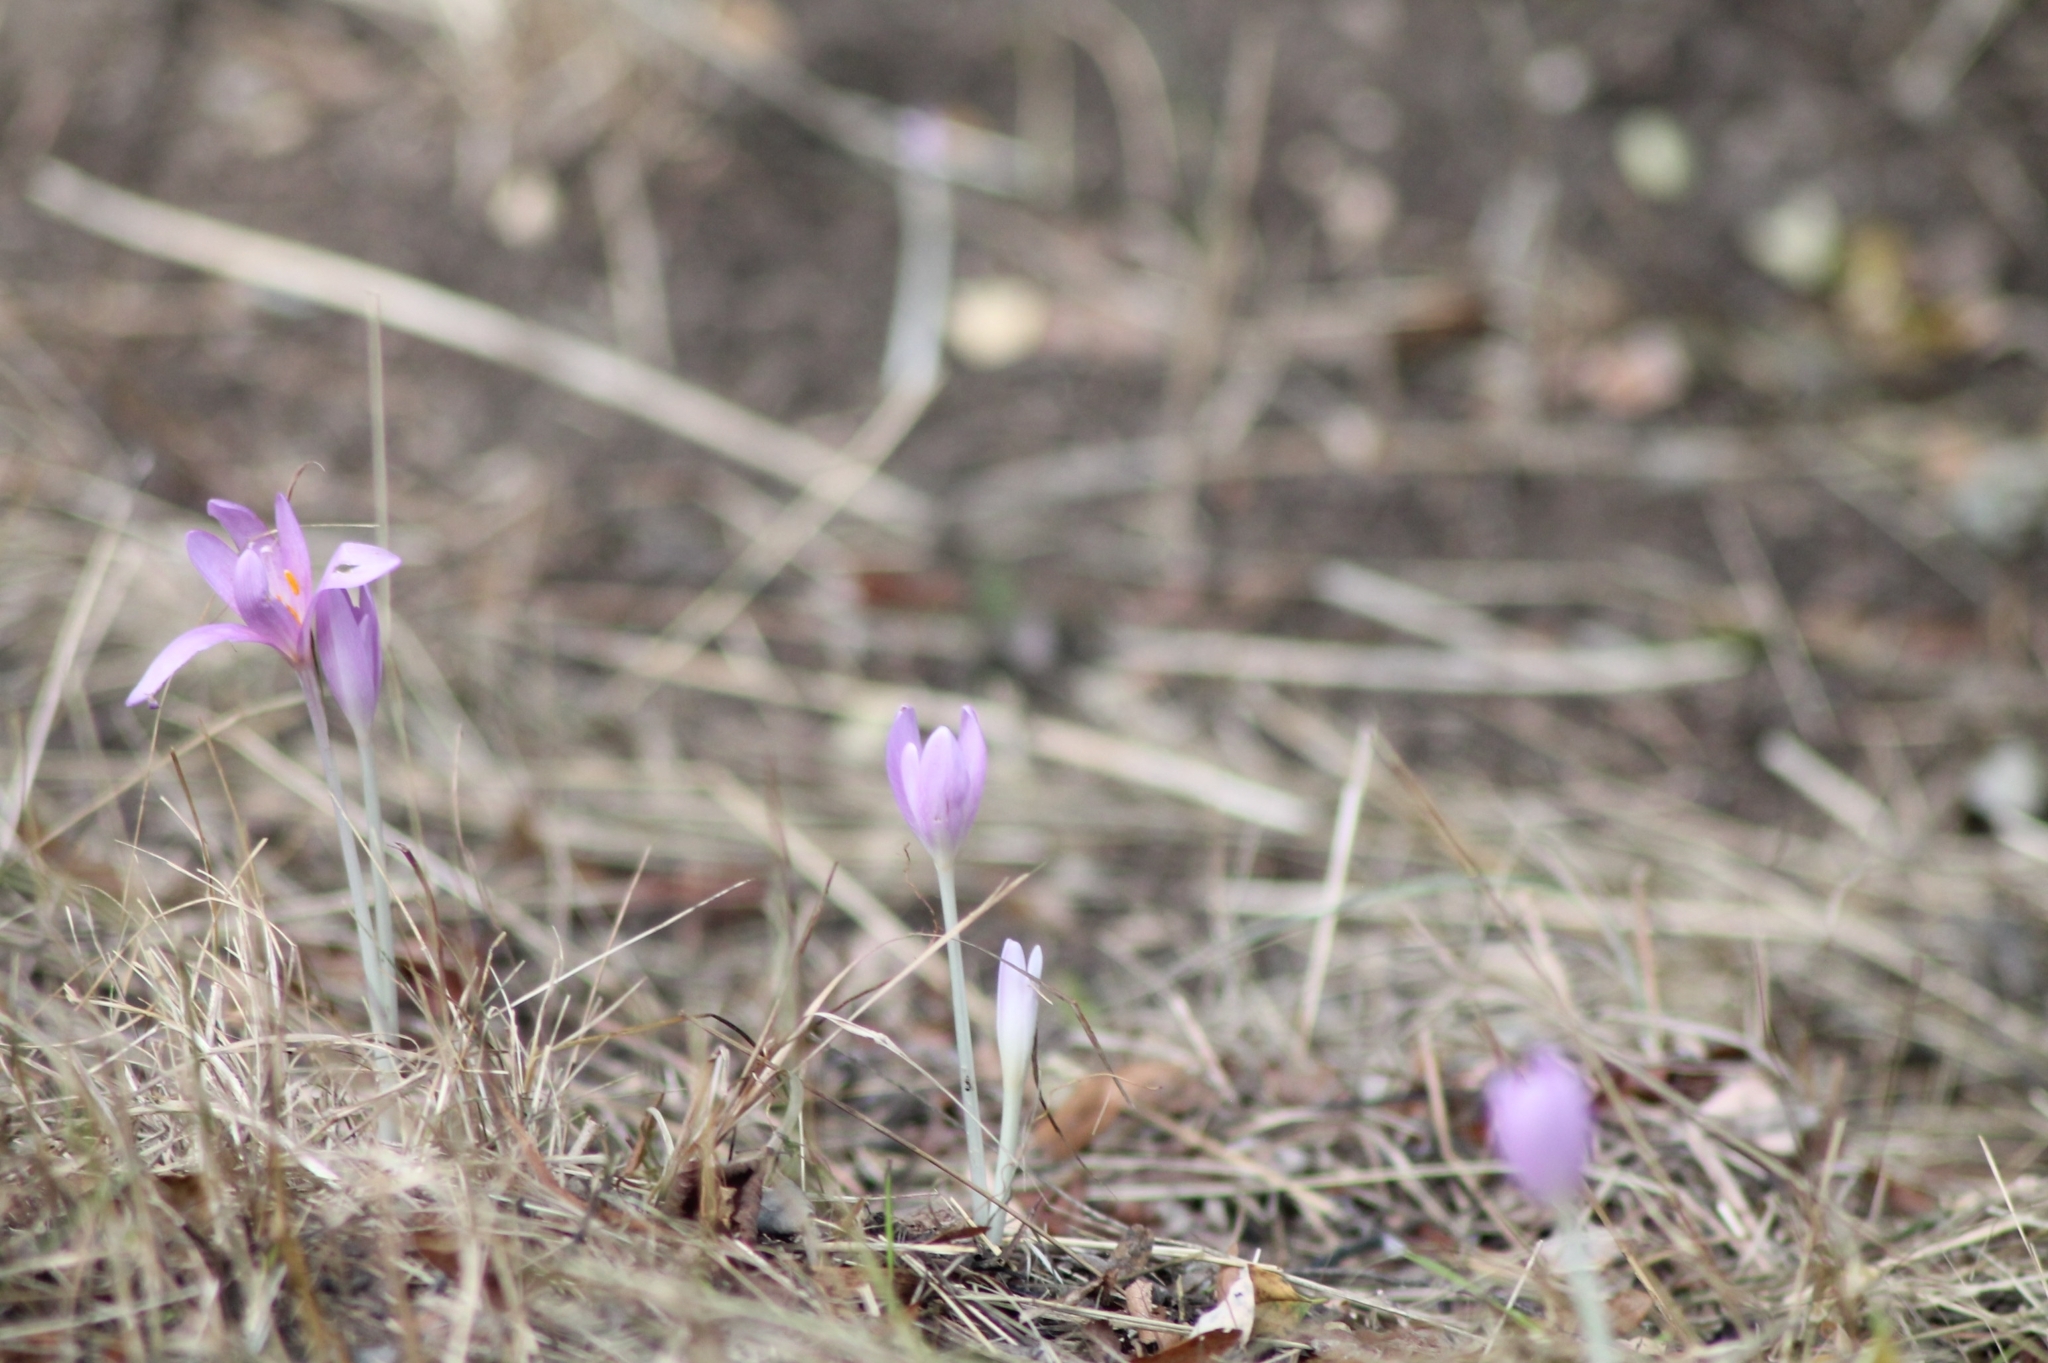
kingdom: Plantae
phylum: Tracheophyta
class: Liliopsida
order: Liliales
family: Colchicaceae
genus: Colchicum
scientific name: Colchicum autumnale
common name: Autumn crocus
